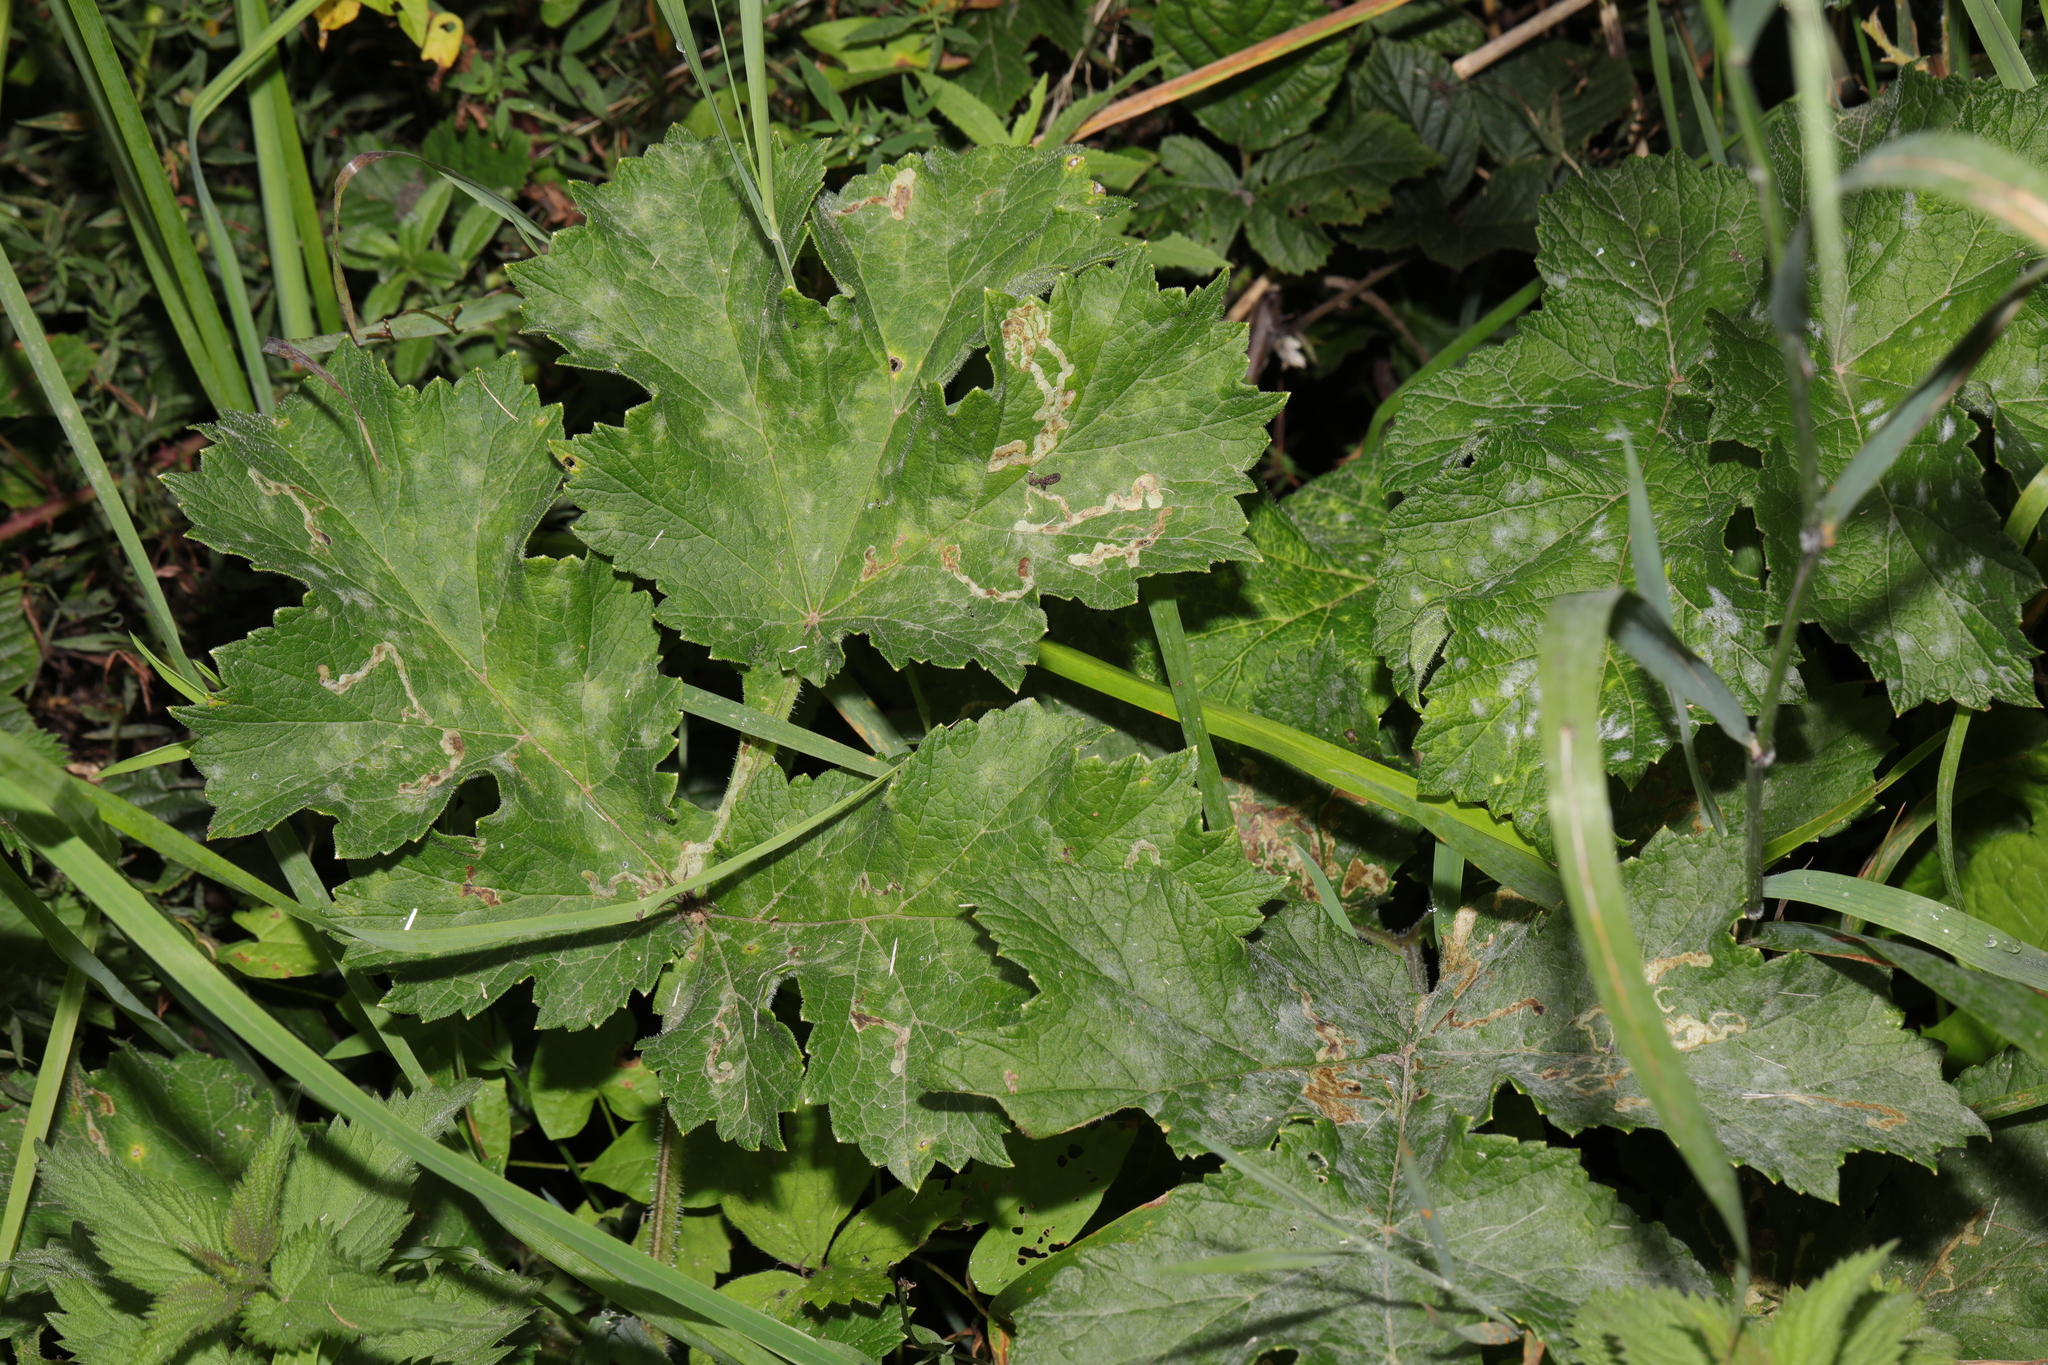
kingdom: Plantae
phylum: Tracheophyta
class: Magnoliopsida
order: Apiales
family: Apiaceae
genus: Heracleum
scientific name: Heracleum sphondylium
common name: Hogweed
